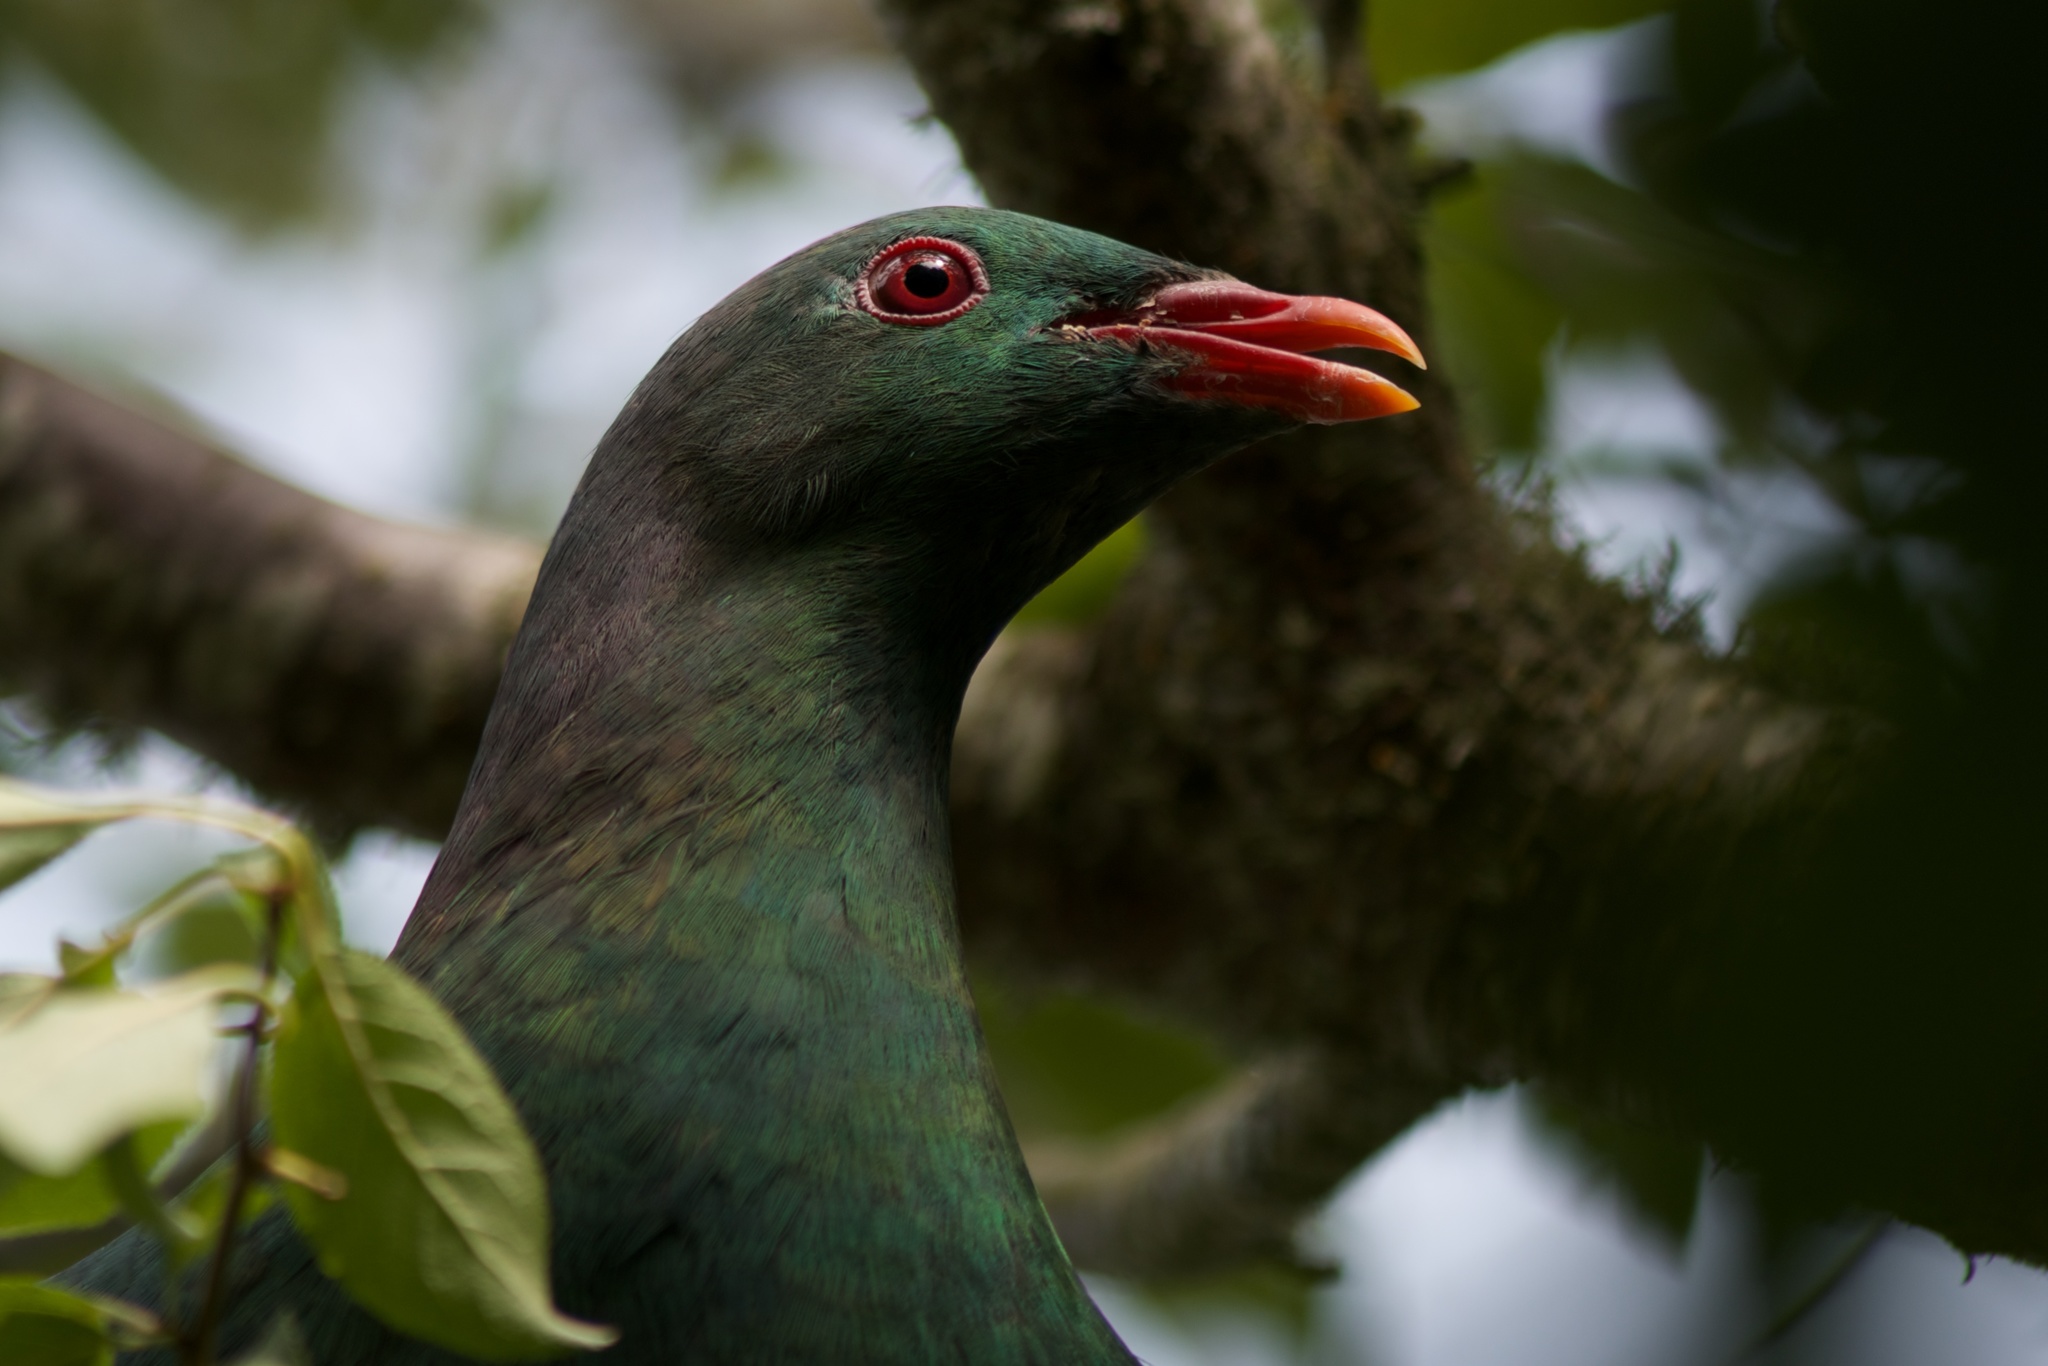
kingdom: Animalia
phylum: Chordata
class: Aves
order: Columbiformes
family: Columbidae
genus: Hemiphaga
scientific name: Hemiphaga novaeseelandiae
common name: New zealand pigeon
